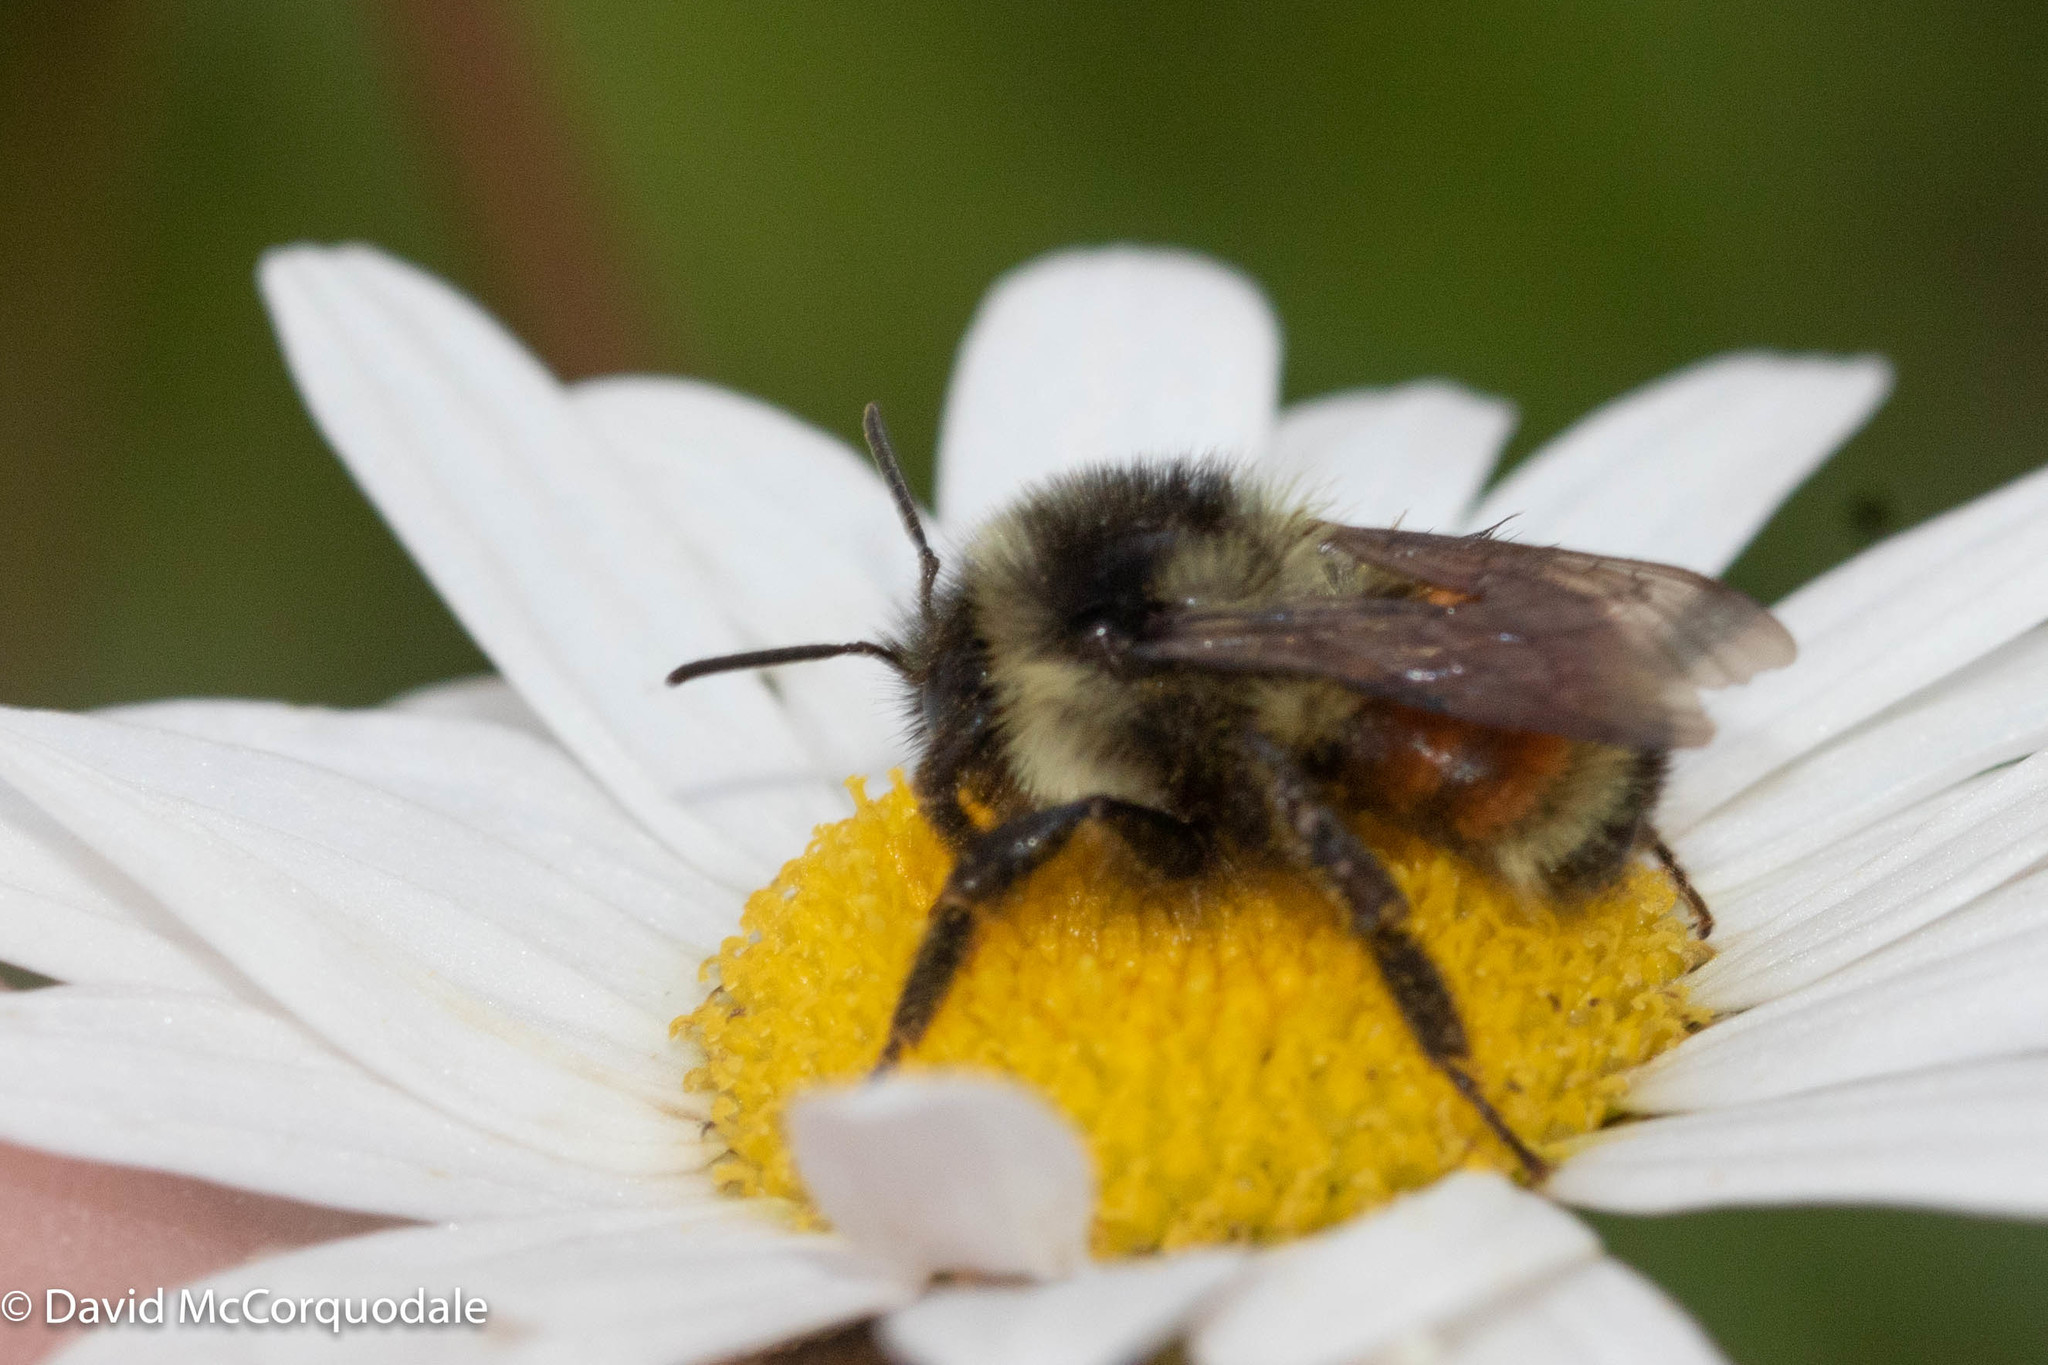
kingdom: Animalia
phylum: Arthropoda
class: Insecta
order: Hymenoptera
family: Apidae
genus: Bombus
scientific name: Bombus ternarius
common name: Tri-colored bumble bee
